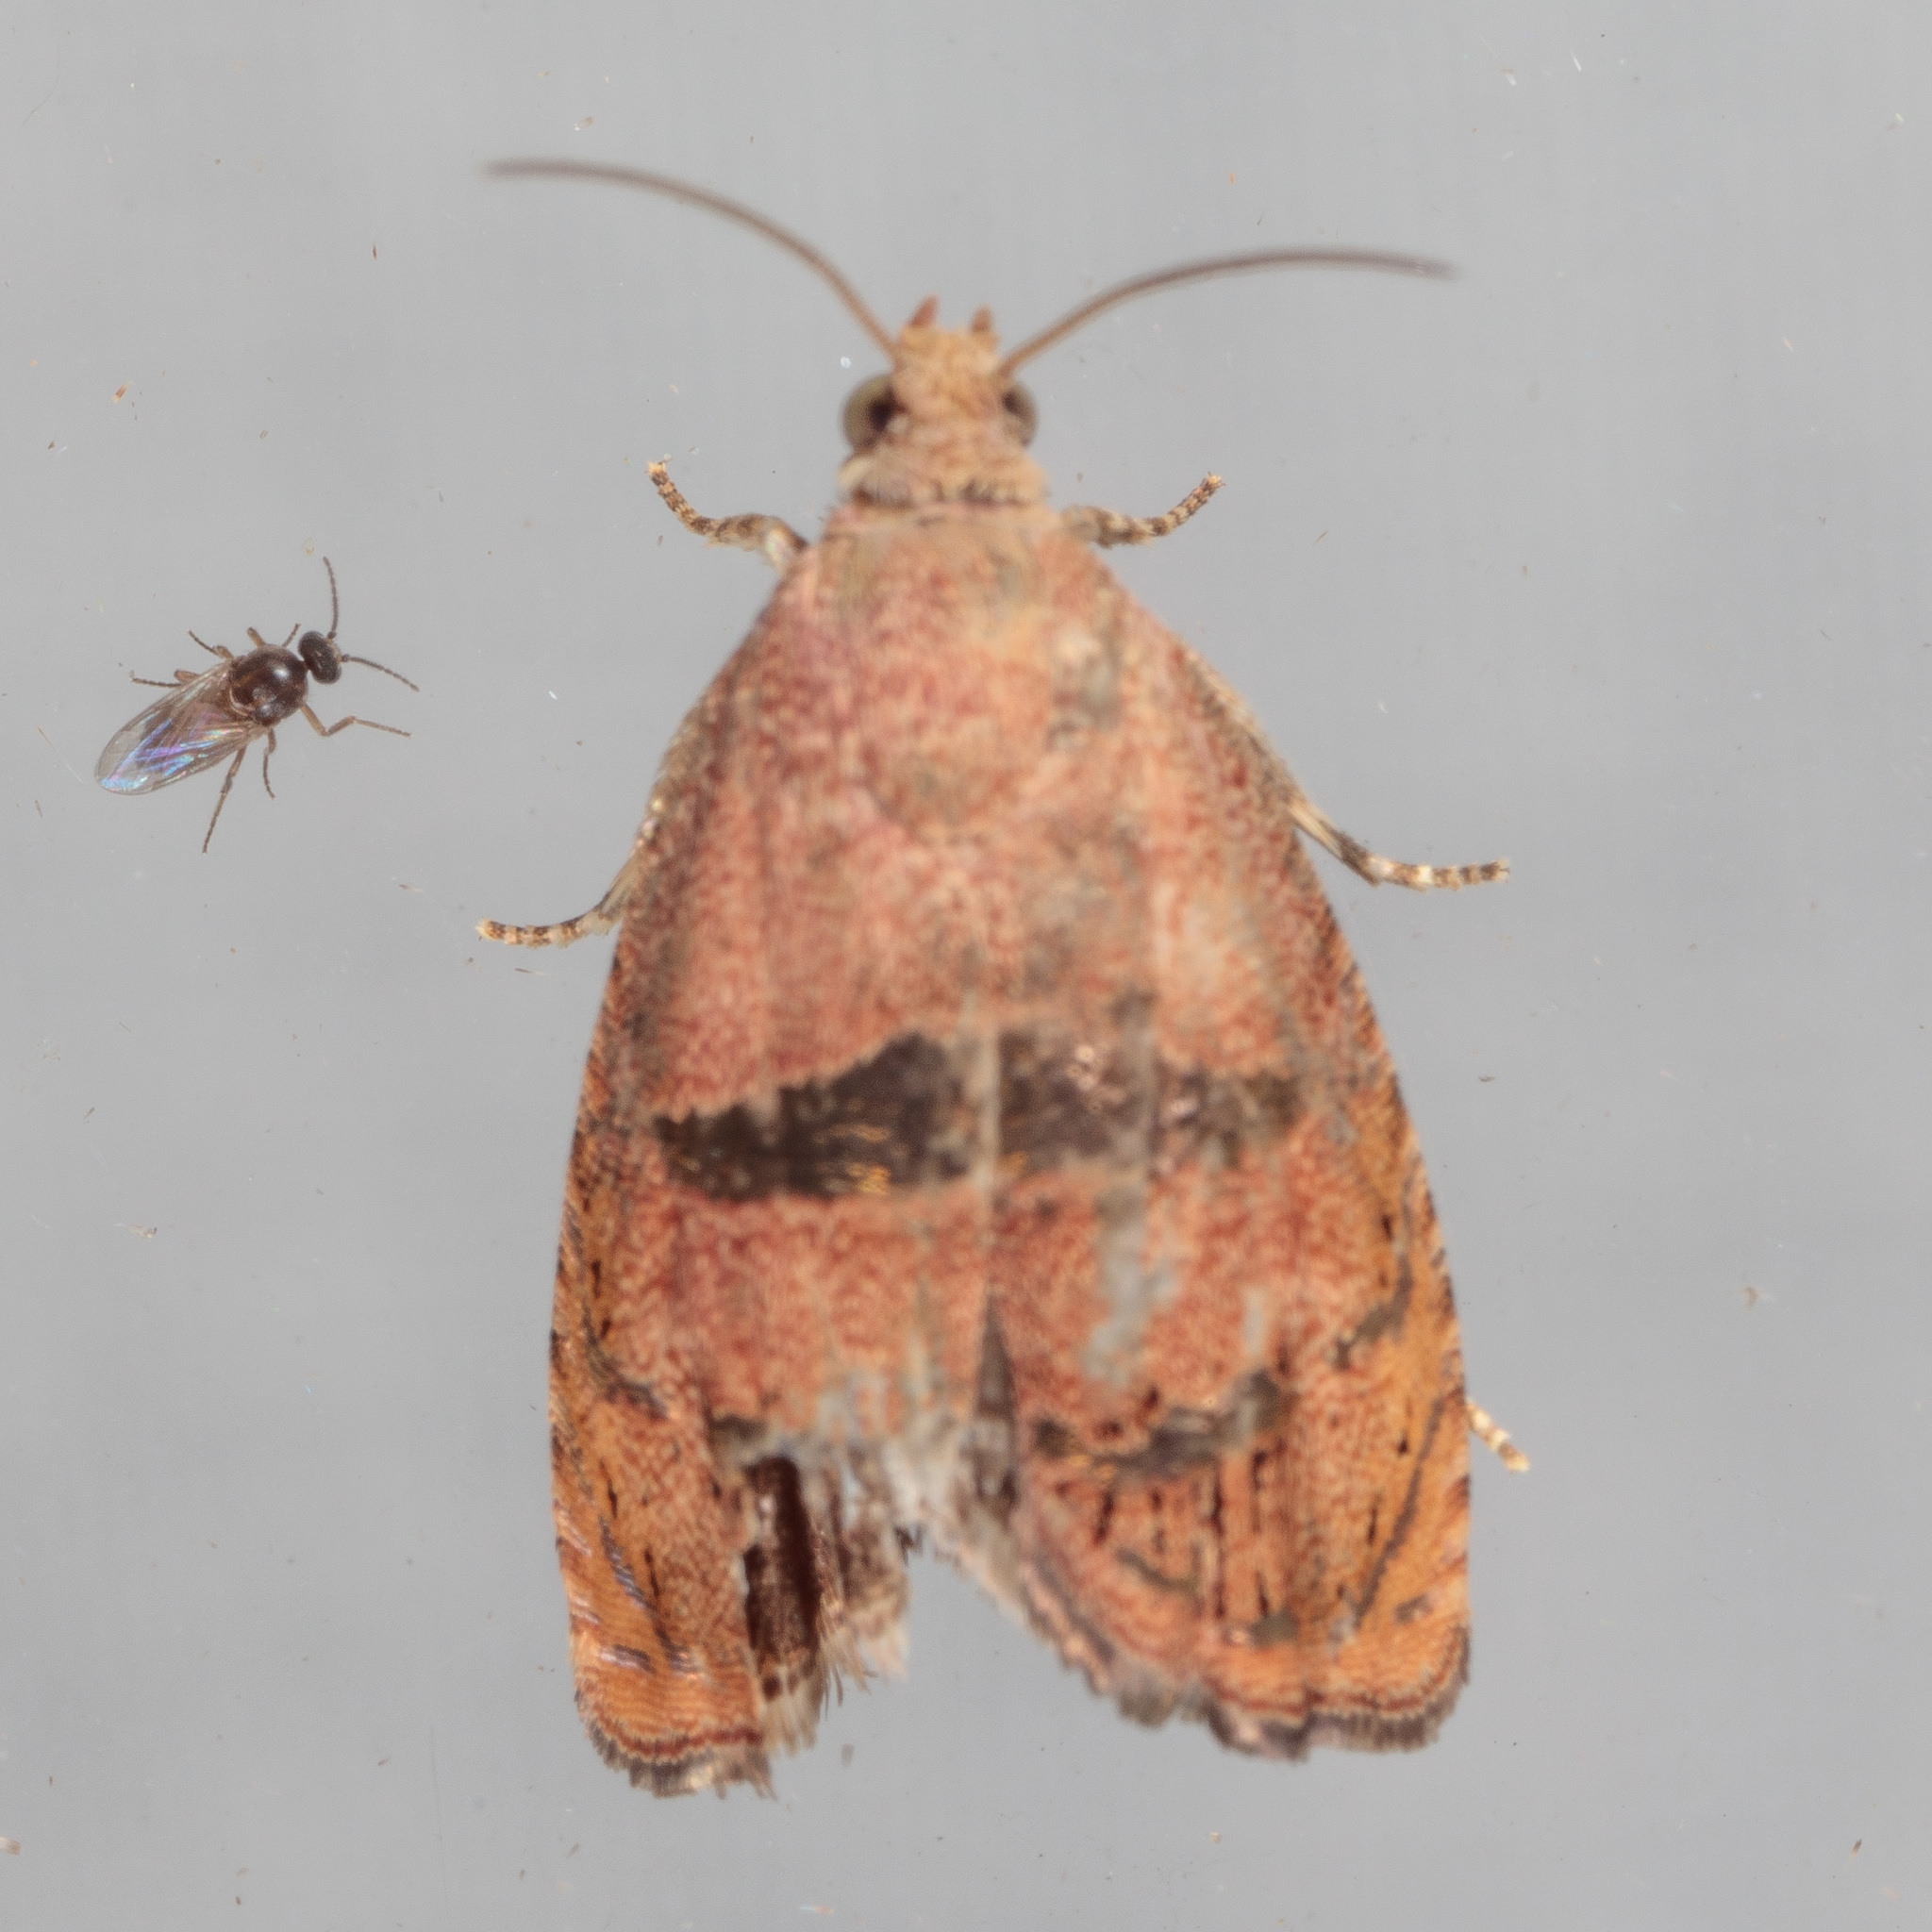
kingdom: Animalia
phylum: Arthropoda
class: Insecta
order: Lepidoptera
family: Tortricidae
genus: Cydia
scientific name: Cydia latiferreana
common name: Filbertworm moth
